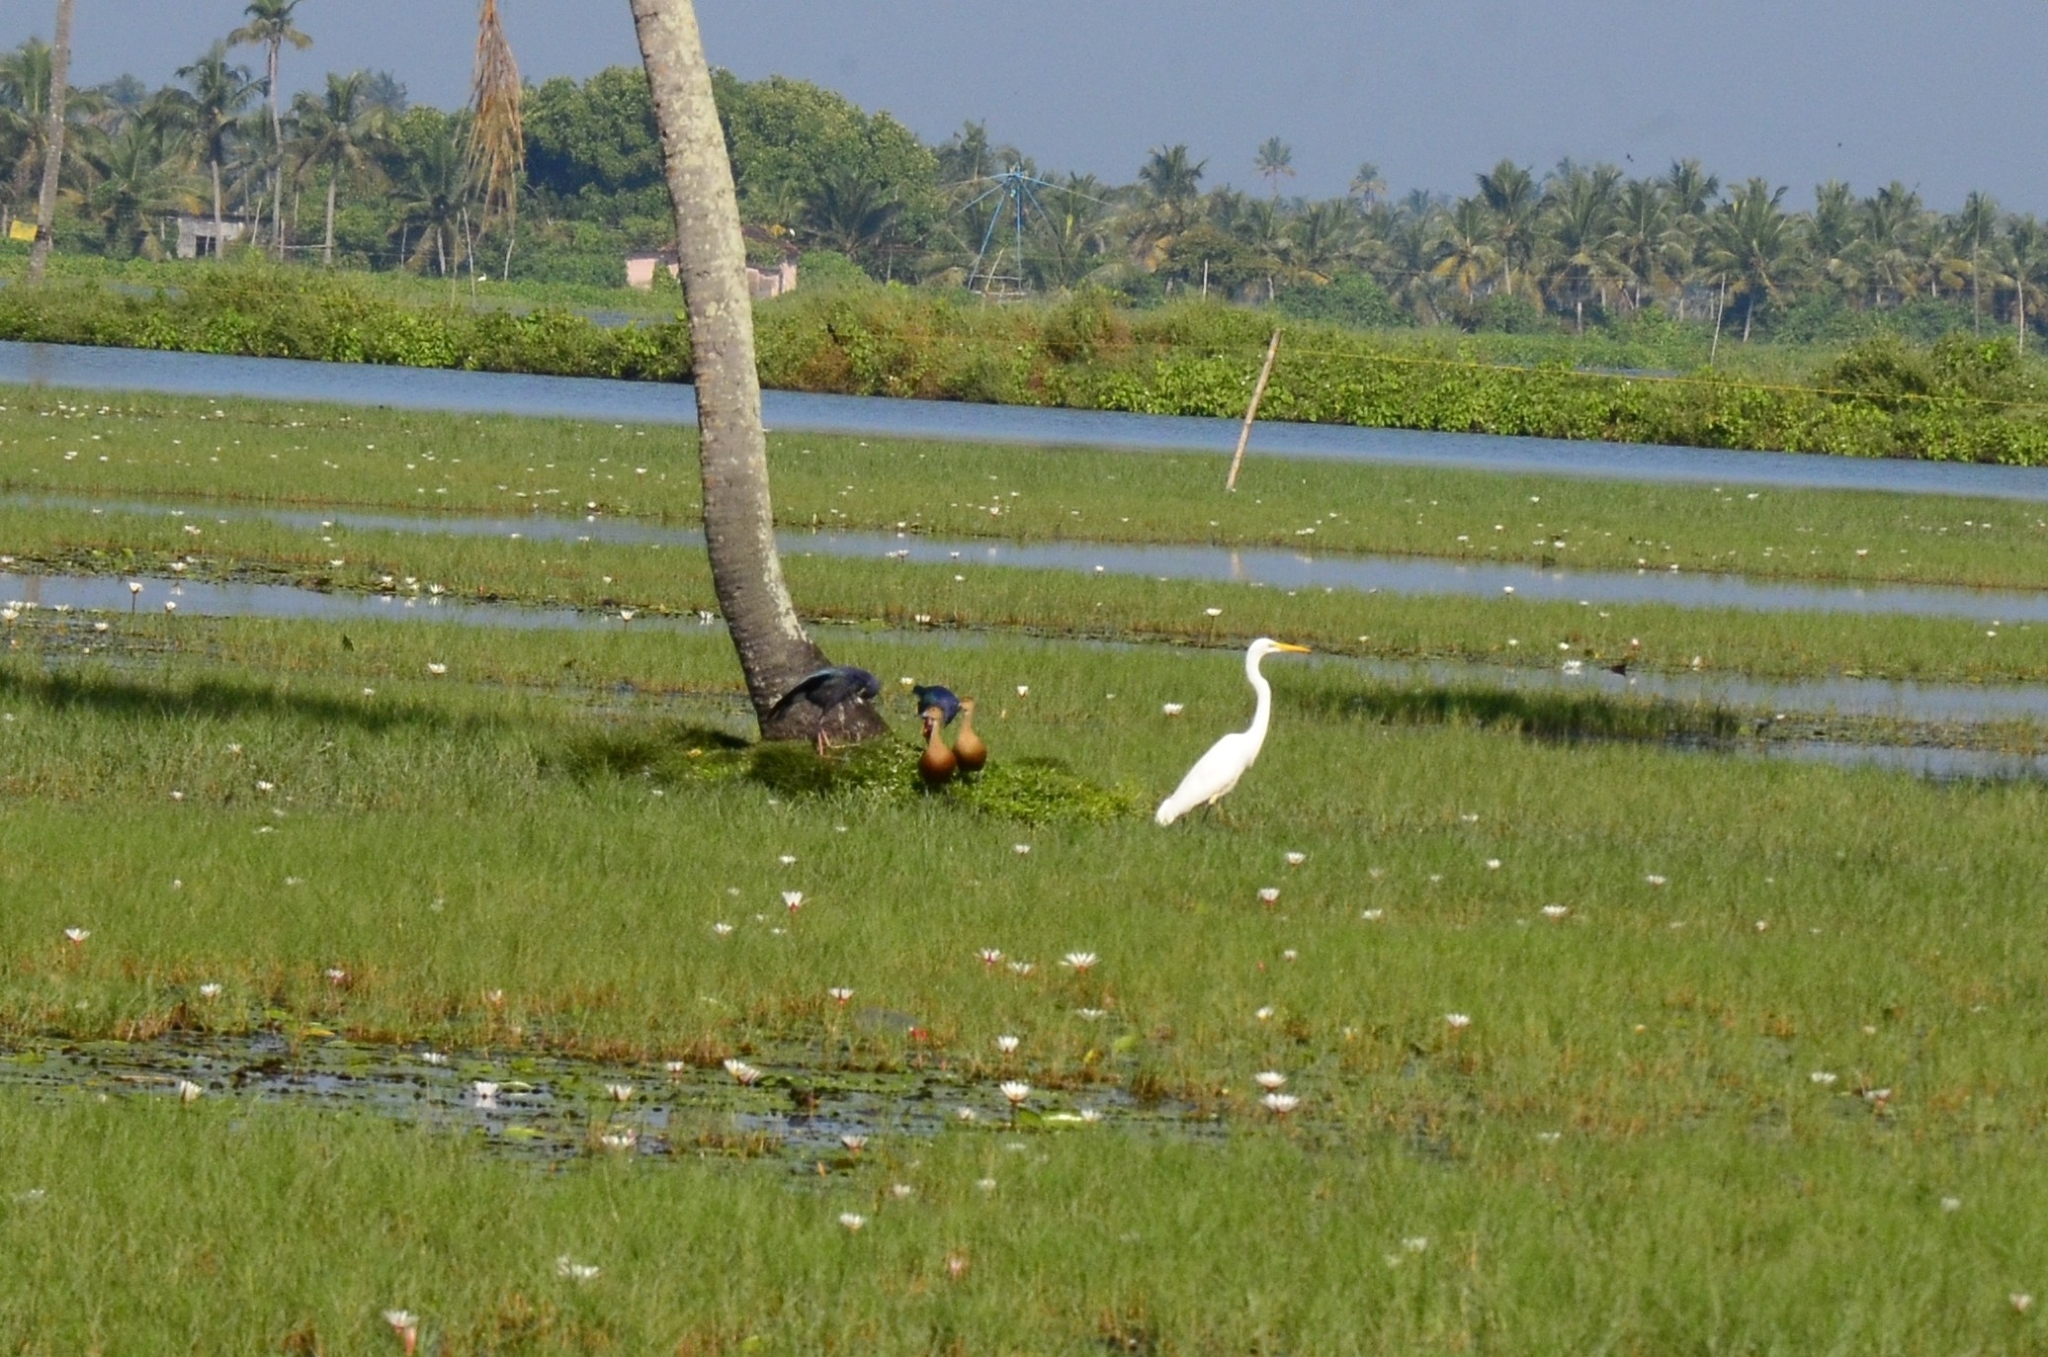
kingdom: Animalia
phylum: Chordata
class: Aves
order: Pelecaniformes
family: Ardeidae
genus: Ardea
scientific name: Ardea alba
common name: Great egret
